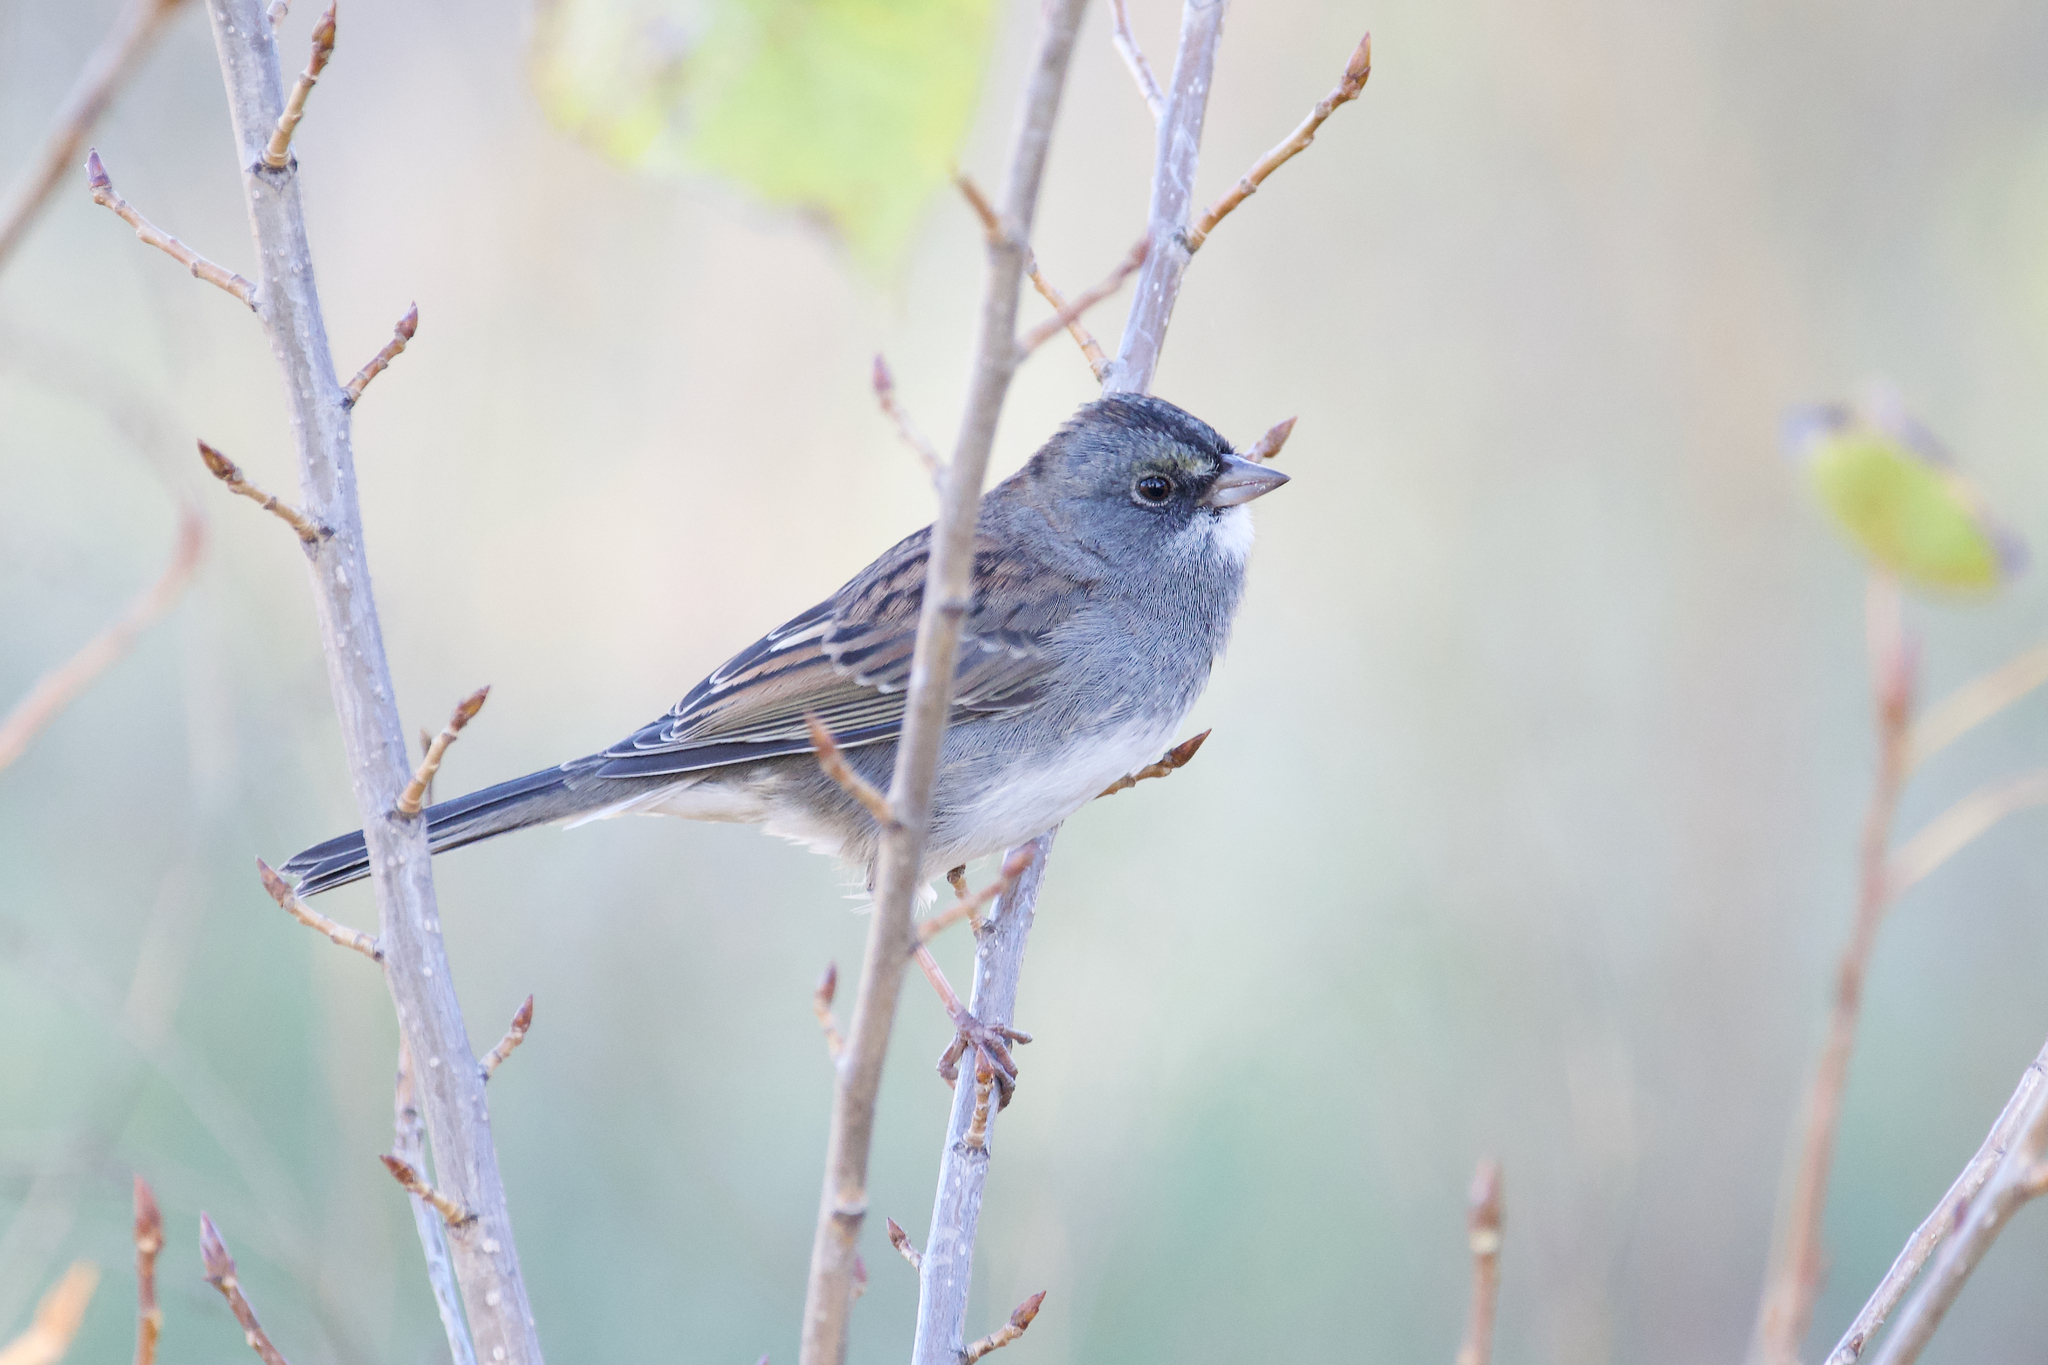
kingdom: Animalia
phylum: Chordata
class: Aves
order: Passeriformes
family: Passerellidae
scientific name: Passerellidae
